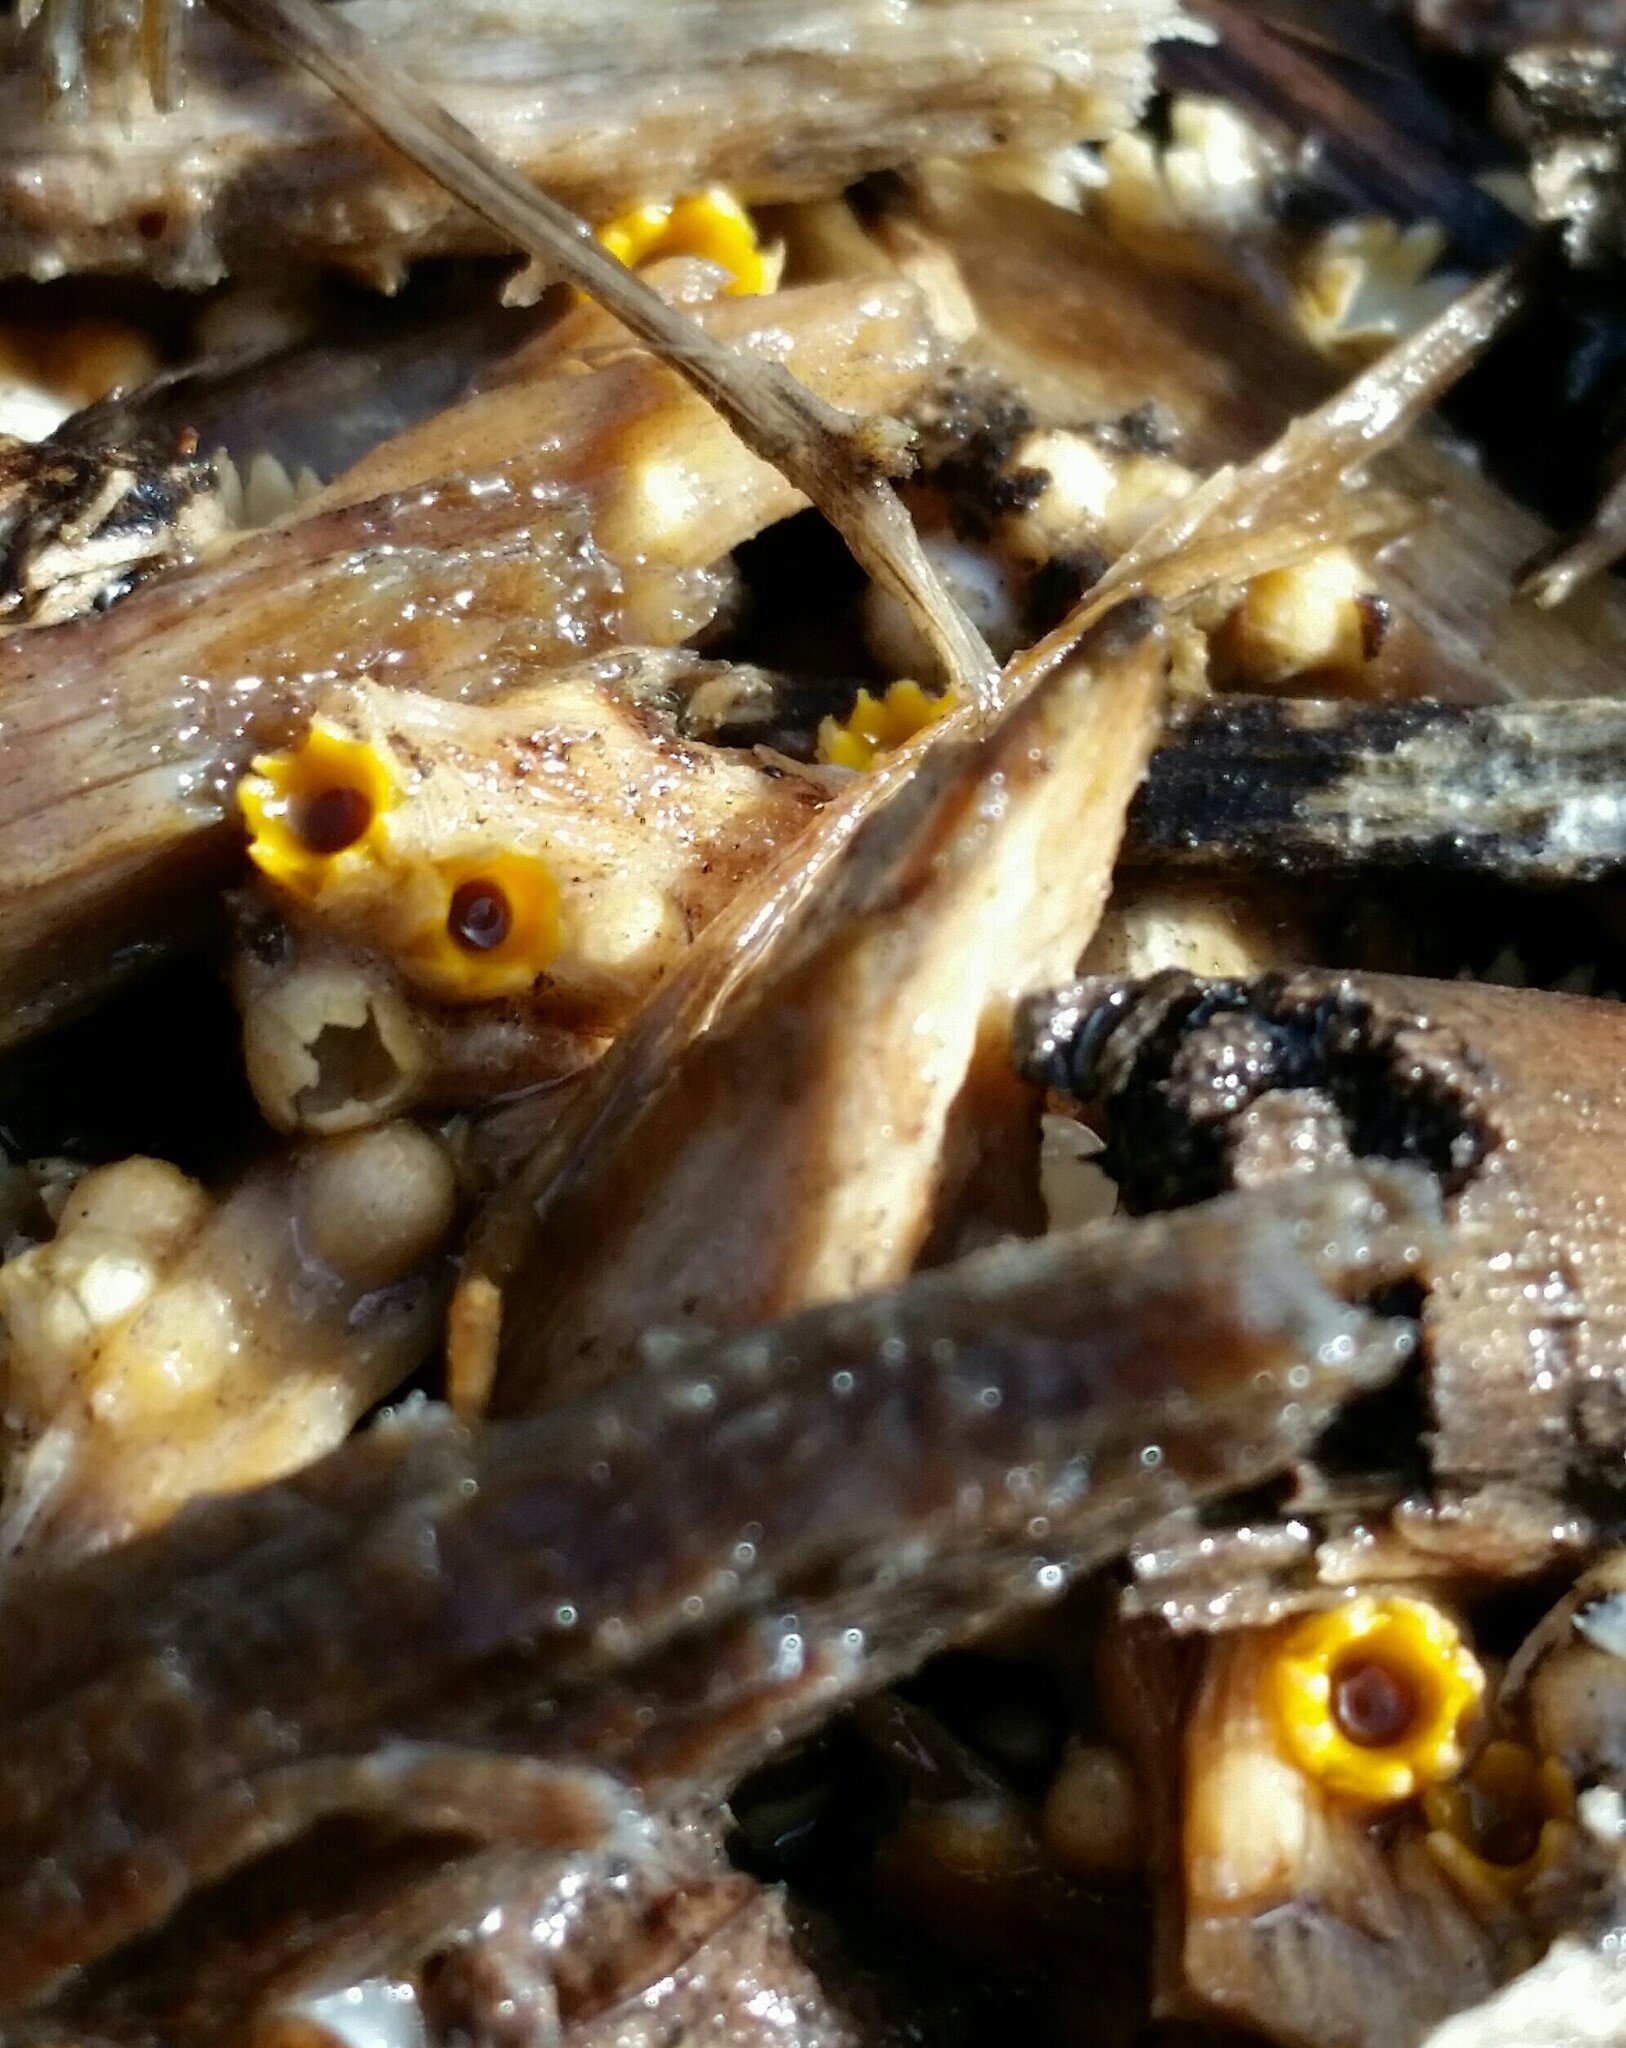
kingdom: Fungi
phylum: Basidiomycota
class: Agaricomycetes
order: Geastrales
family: Geastraceae
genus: Sphaerobolus
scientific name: Sphaerobolus stellatus
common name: Cannon fungus
